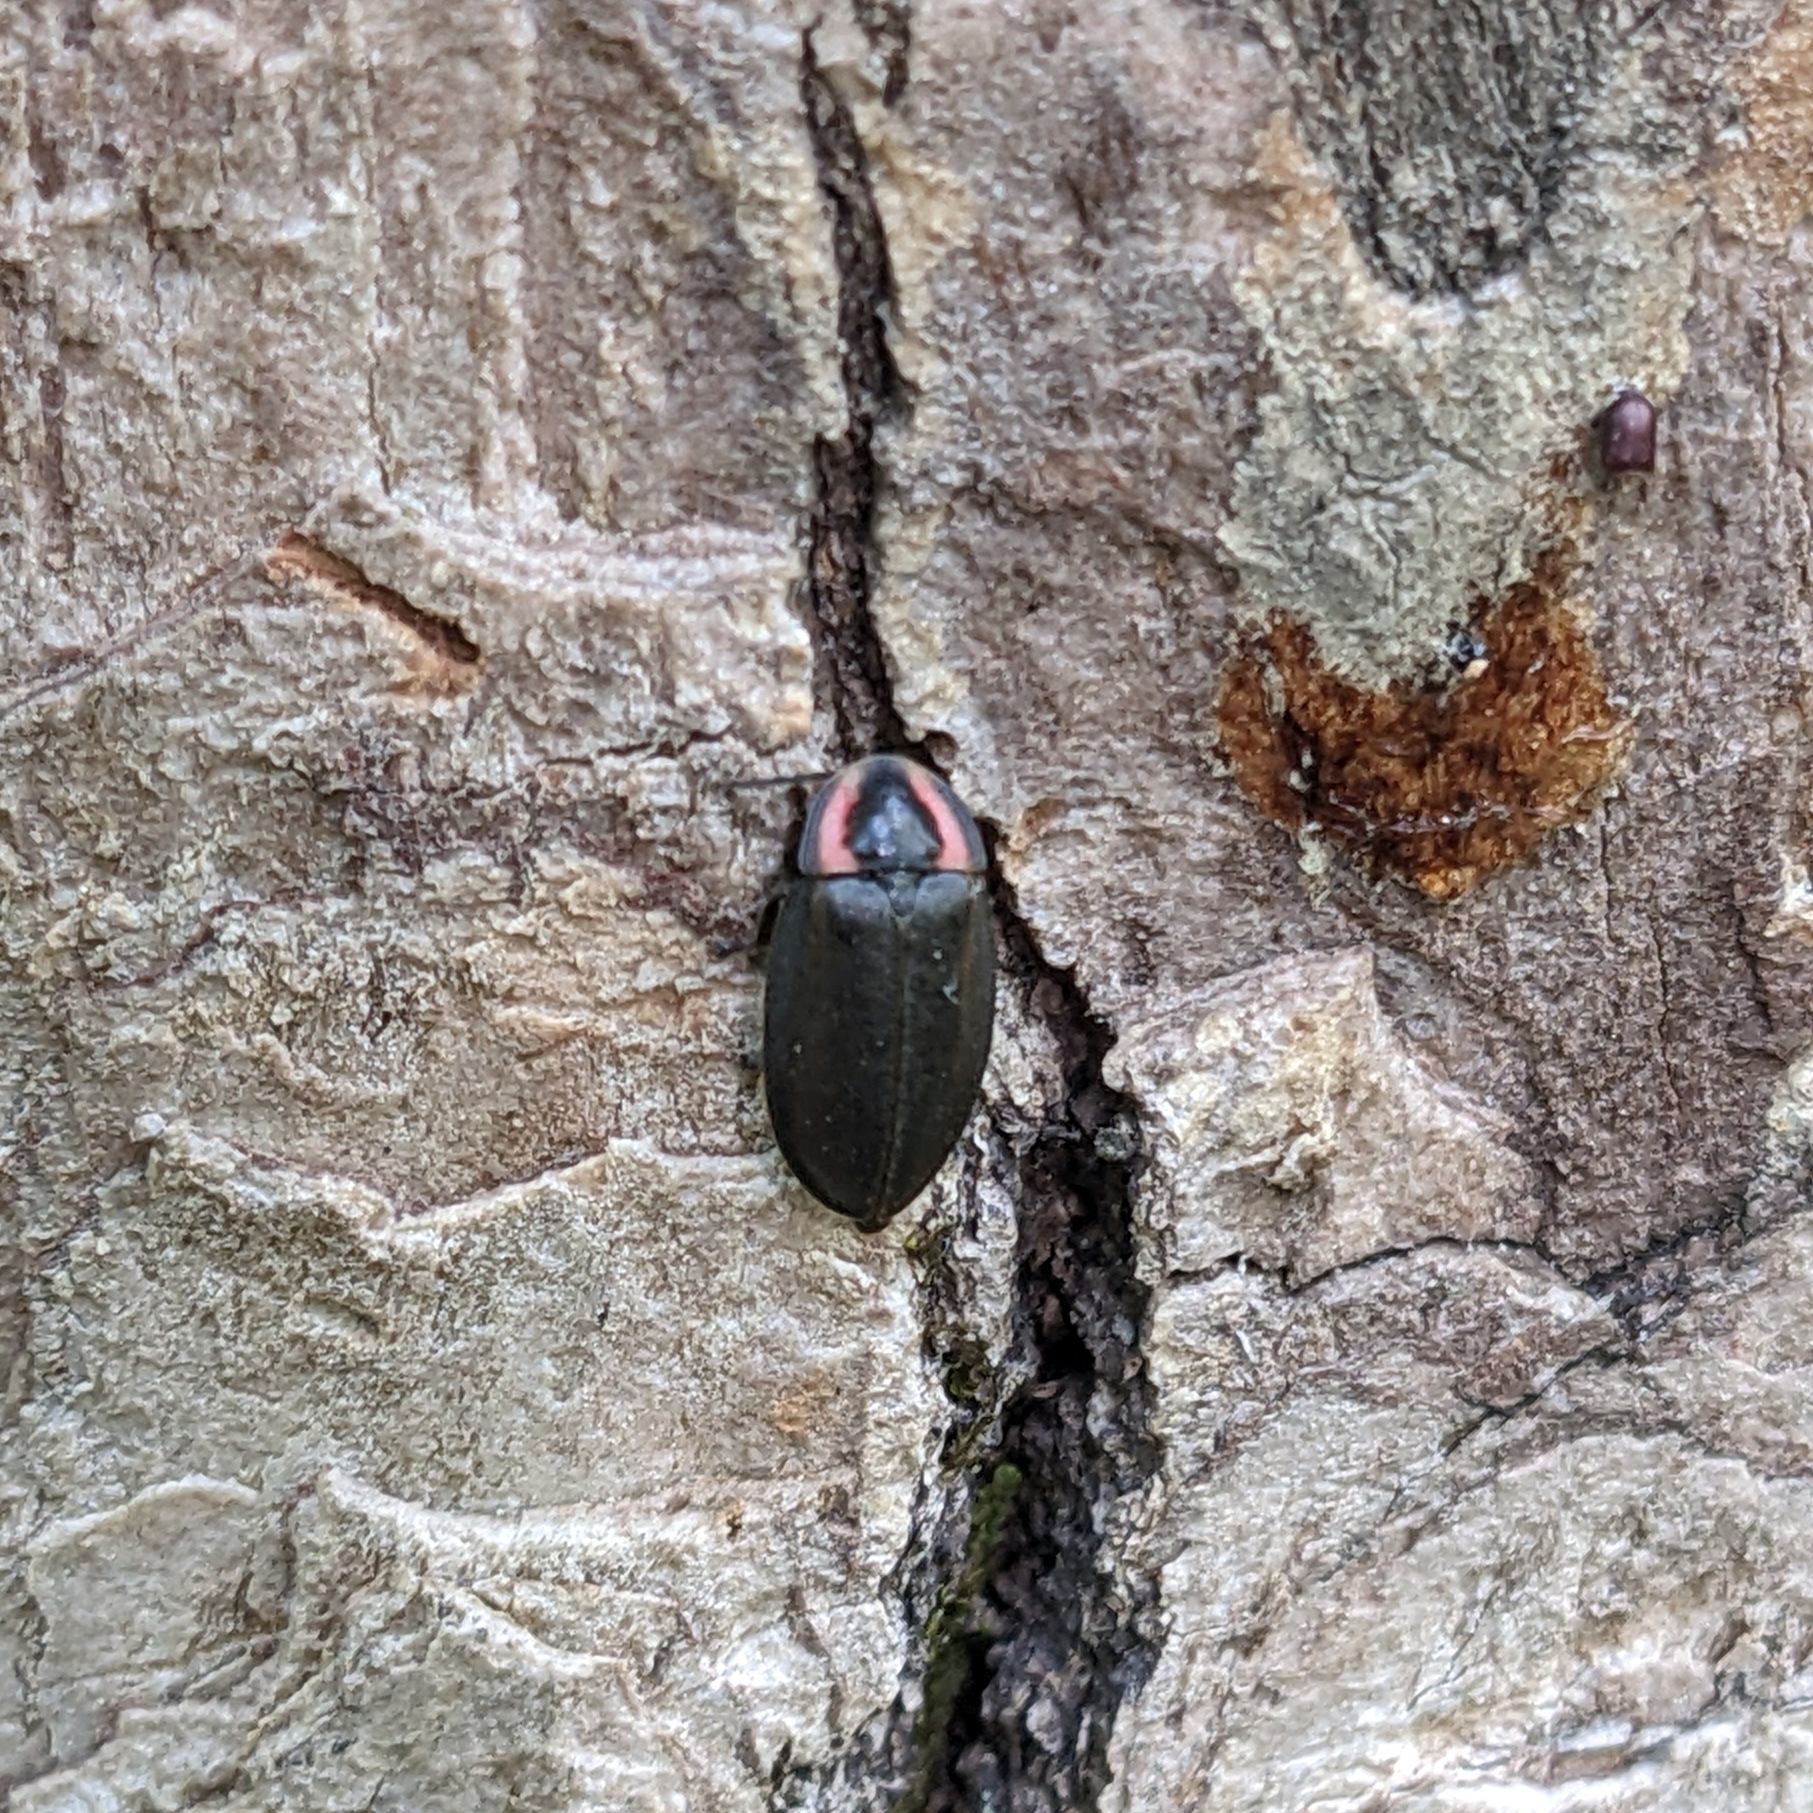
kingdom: Animalia
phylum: Arthropoda
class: Insecta
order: Coleoptera
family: Lampyridae
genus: Photinus
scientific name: Photinus corrusca
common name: Winter firefly
